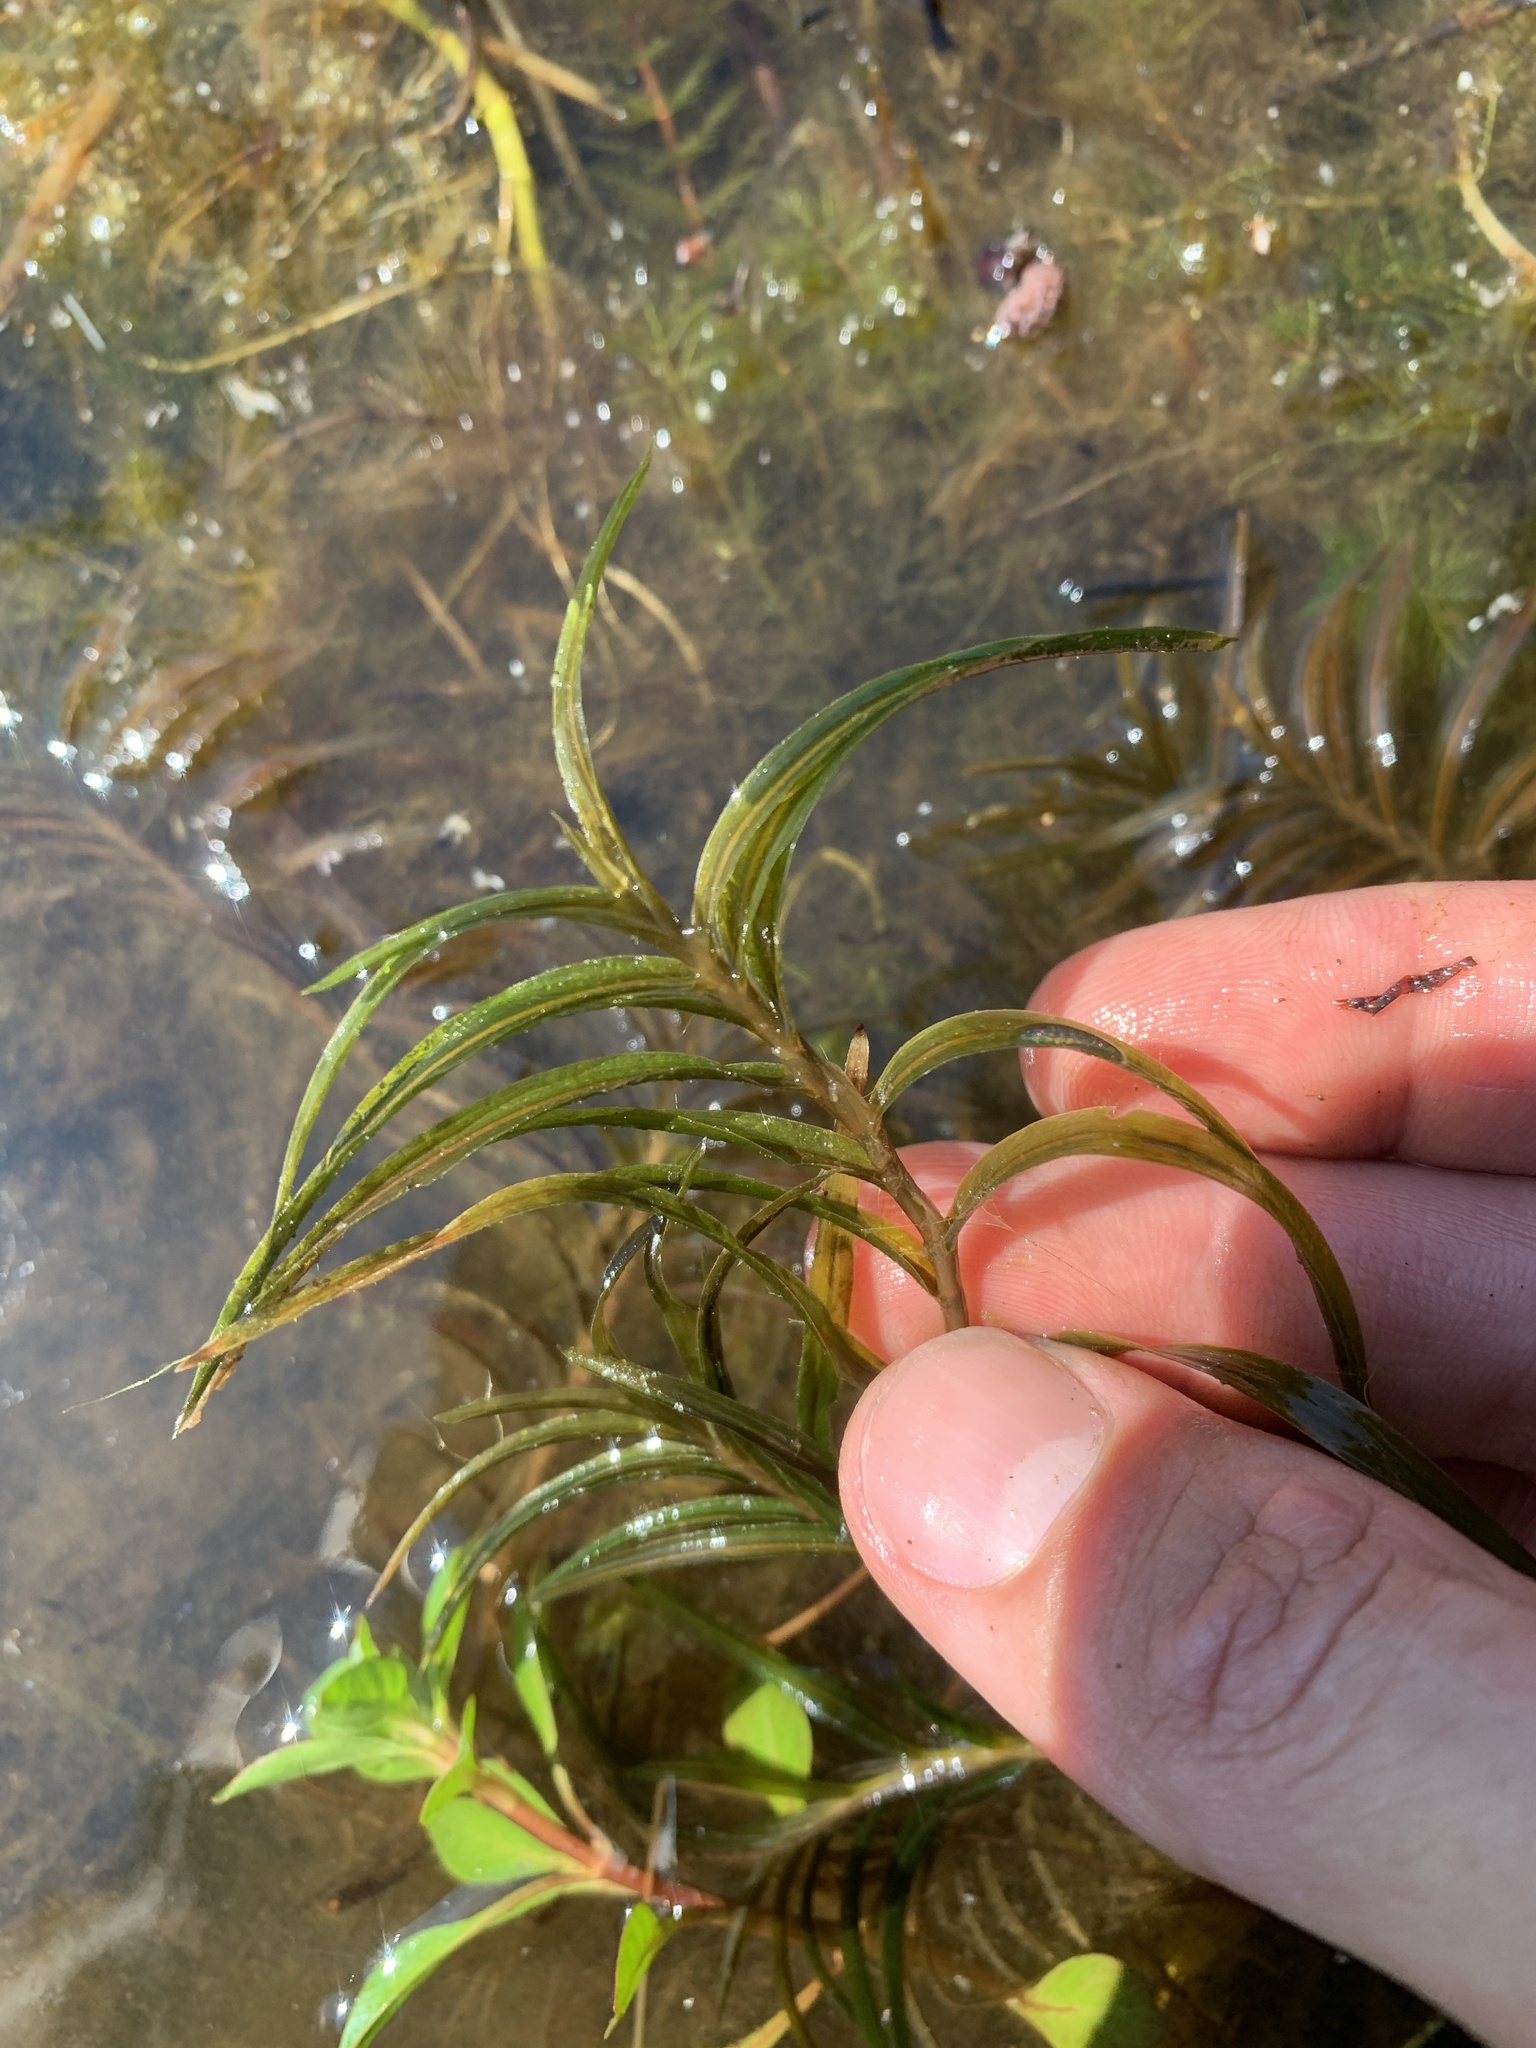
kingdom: Plantae
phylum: Tracheophyta
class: Liliopsida
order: Alismatales
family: Potamogetonaceae
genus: Potamogeton
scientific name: Potamogeton robbinsii
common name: Fern pondweed
